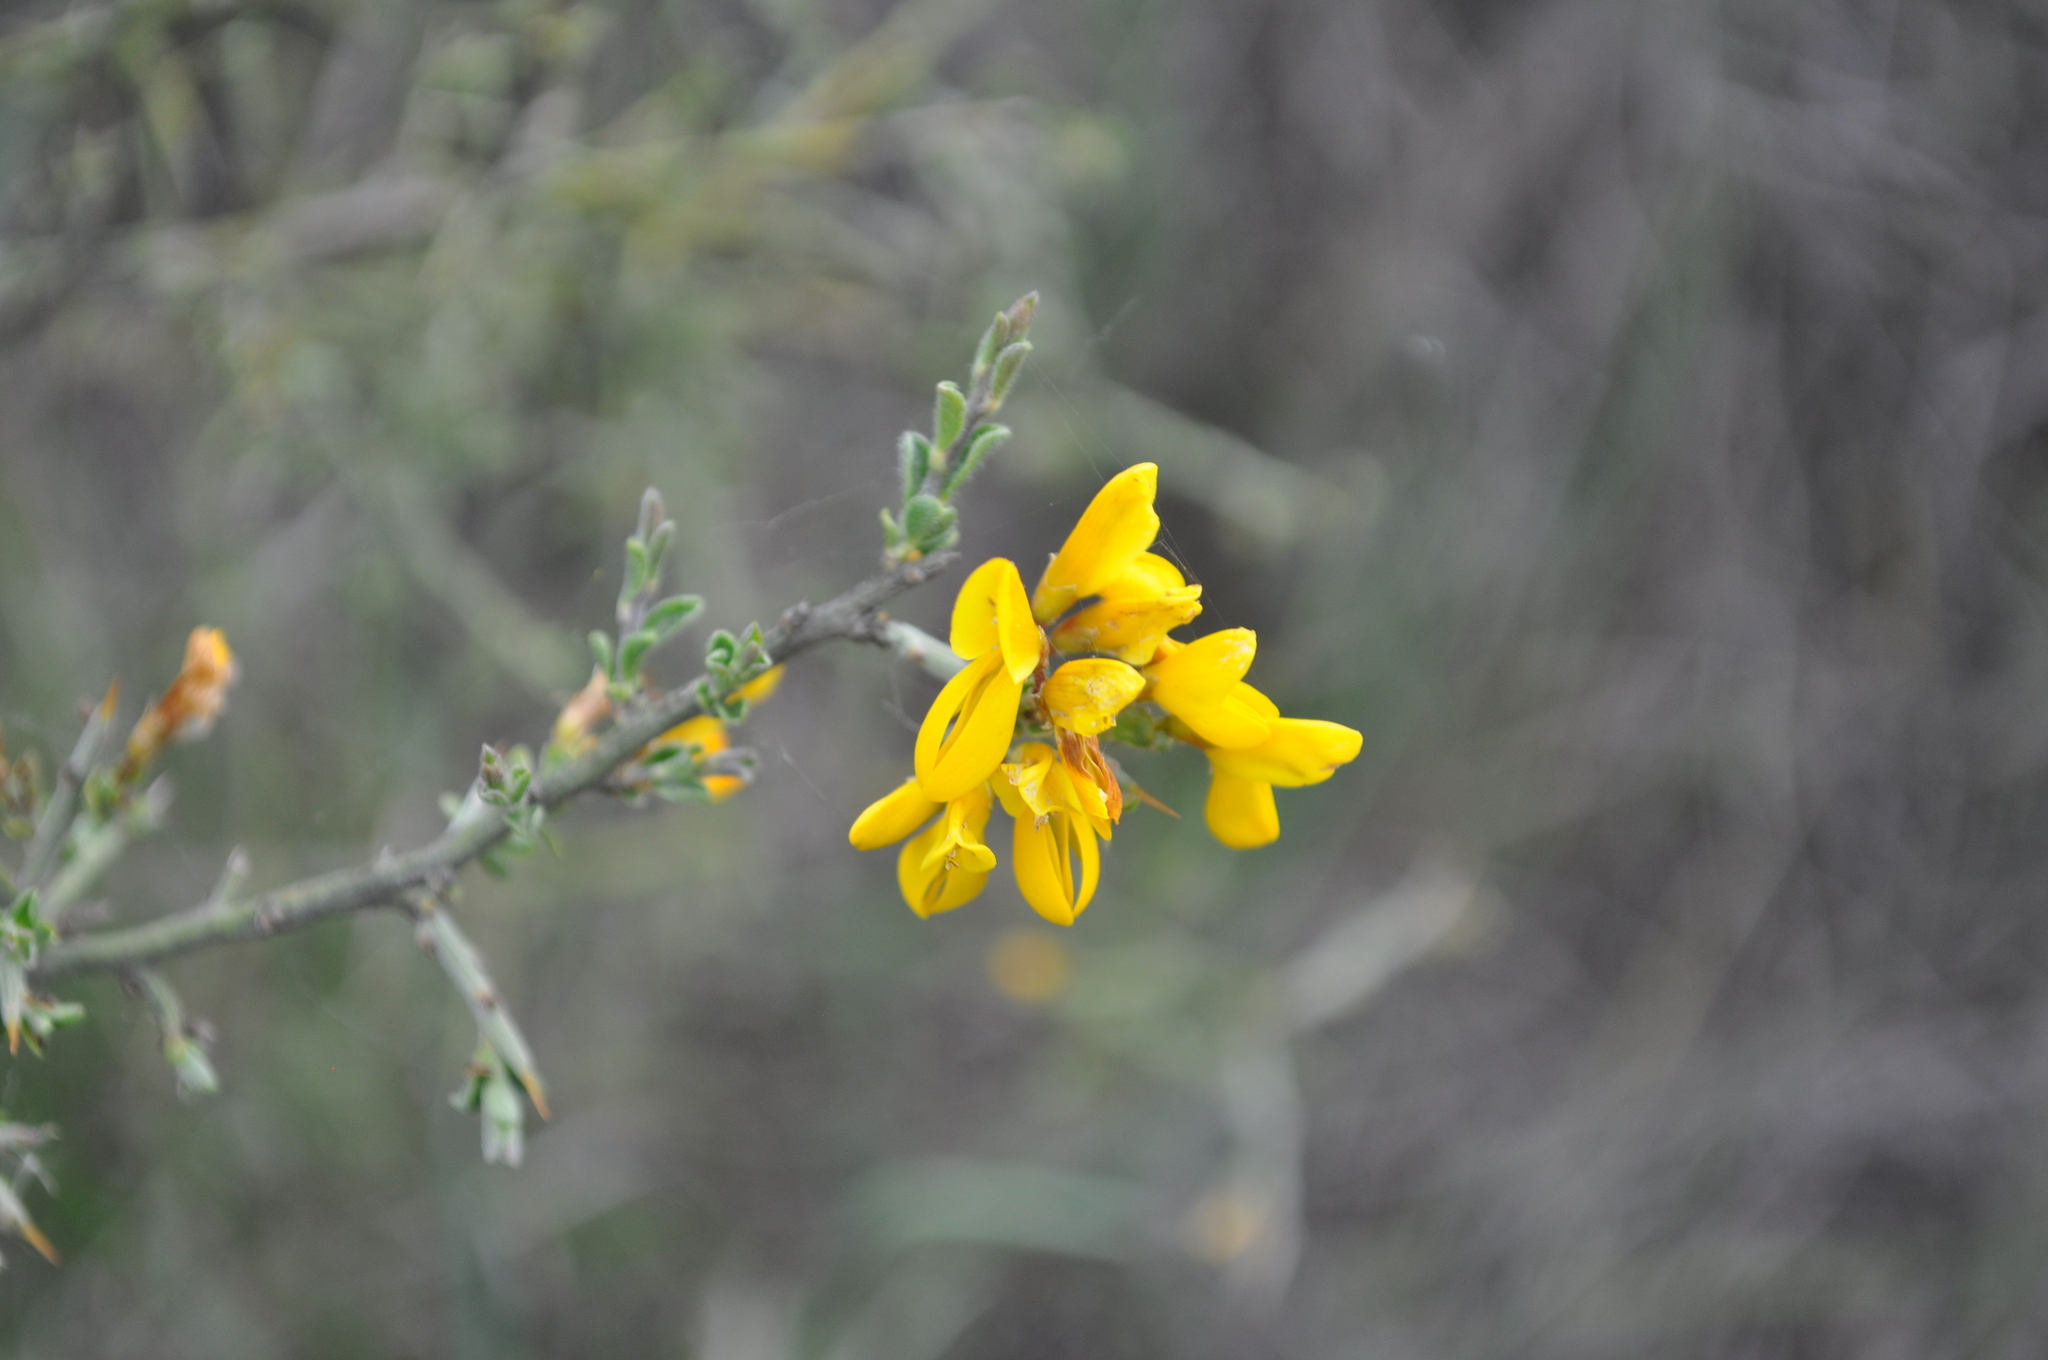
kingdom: Plantae
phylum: Tracheophyta
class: Magnoliopsida
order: Fabales
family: Fabaceae
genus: Genista
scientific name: Genista scorpius
